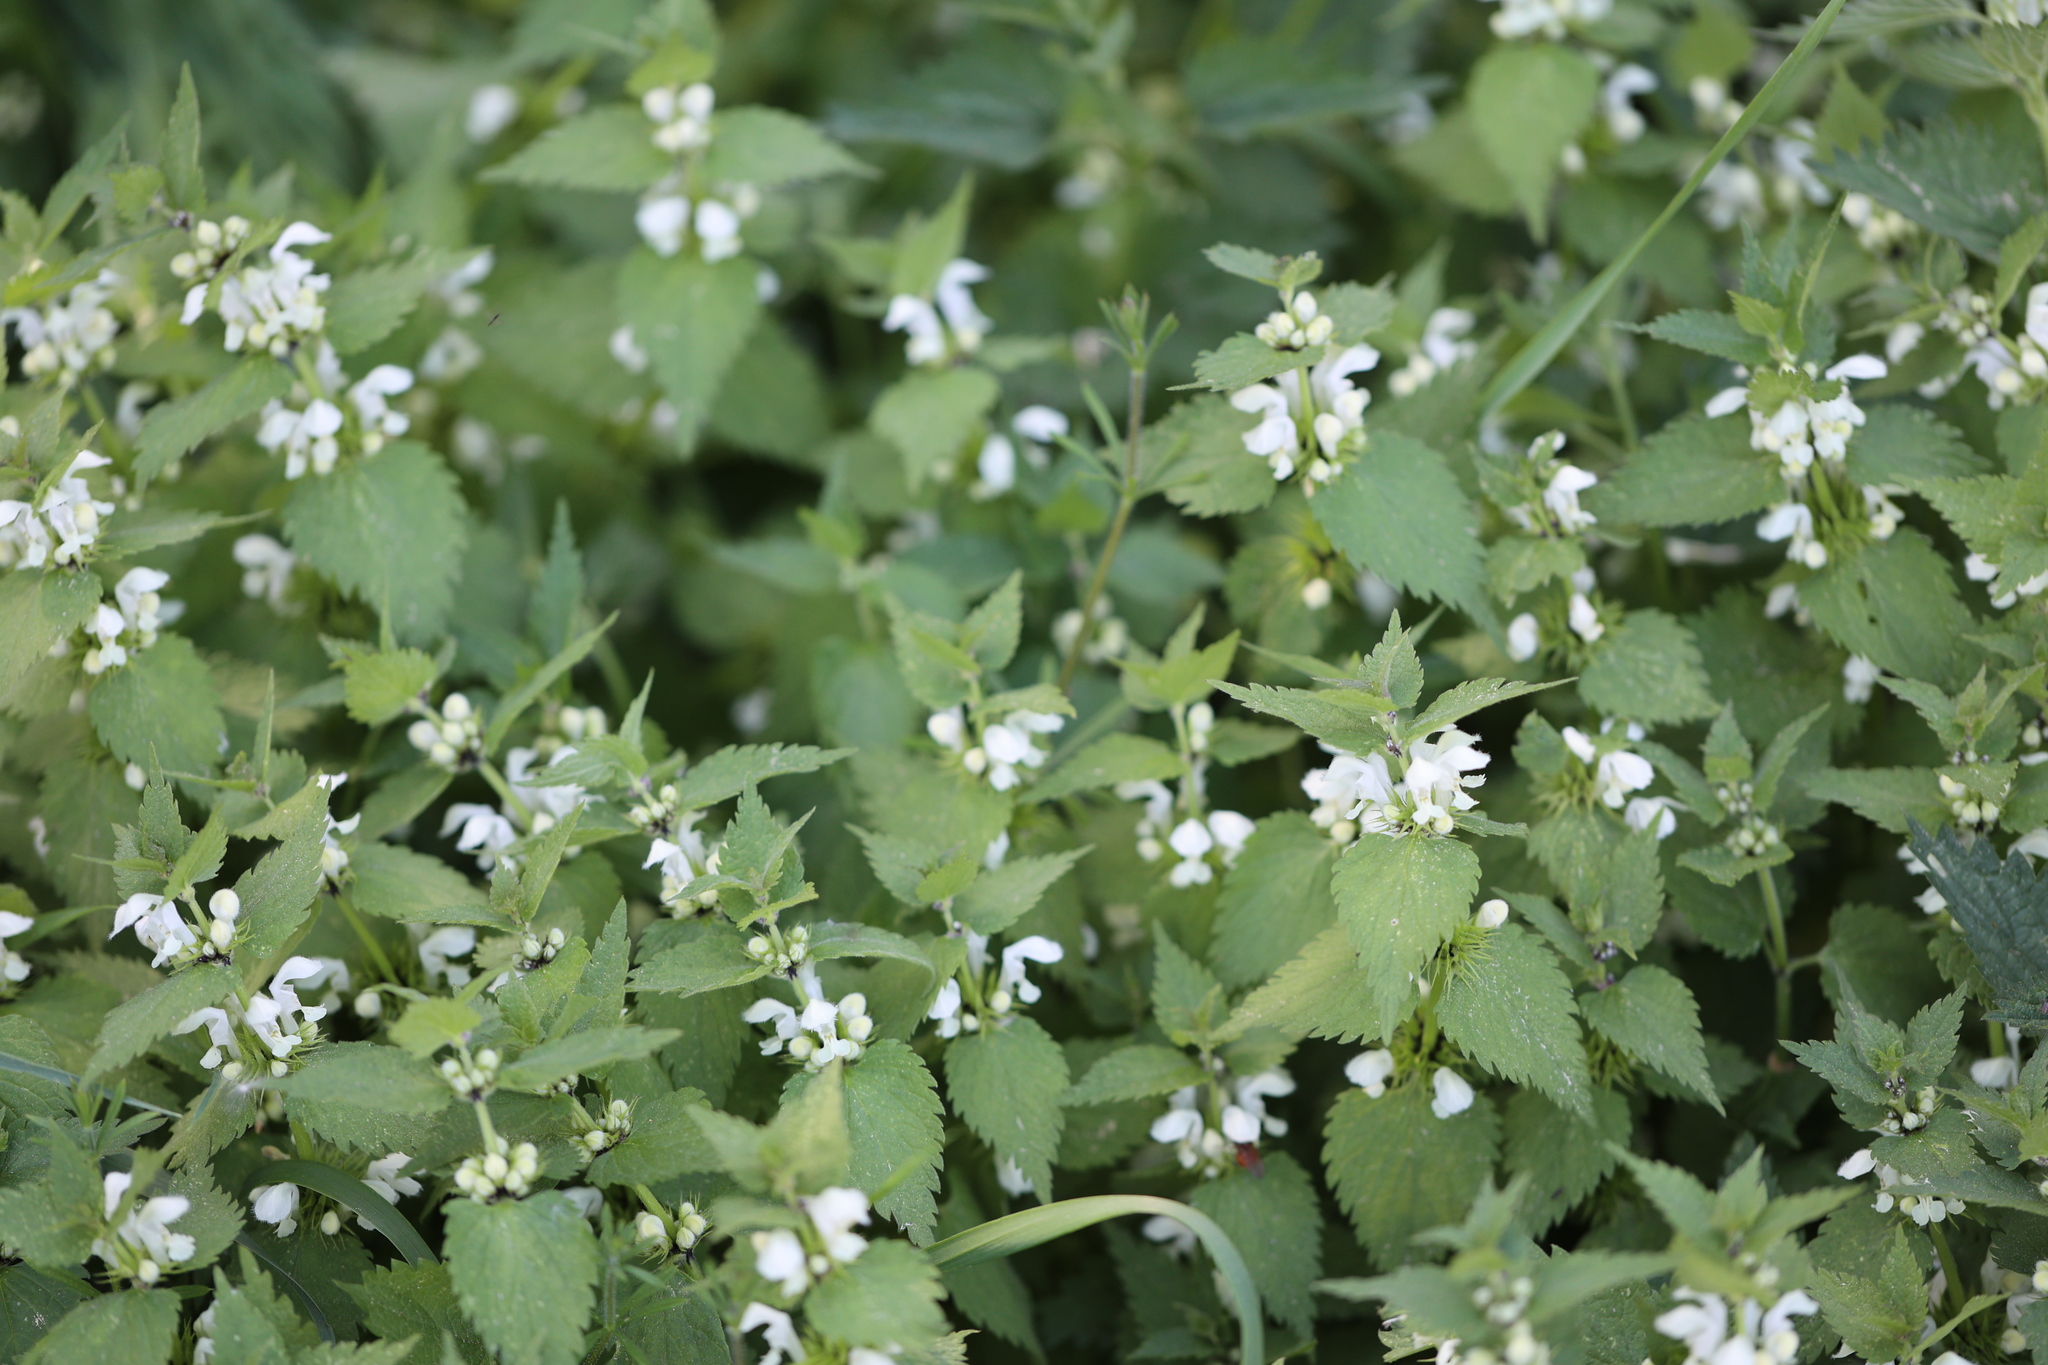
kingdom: Plantae
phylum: Tracheophyta
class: Magnoliopsida
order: Lamiales
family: Lamiaceae
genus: Lamium
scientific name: Lamium album
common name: White dead-nettle
